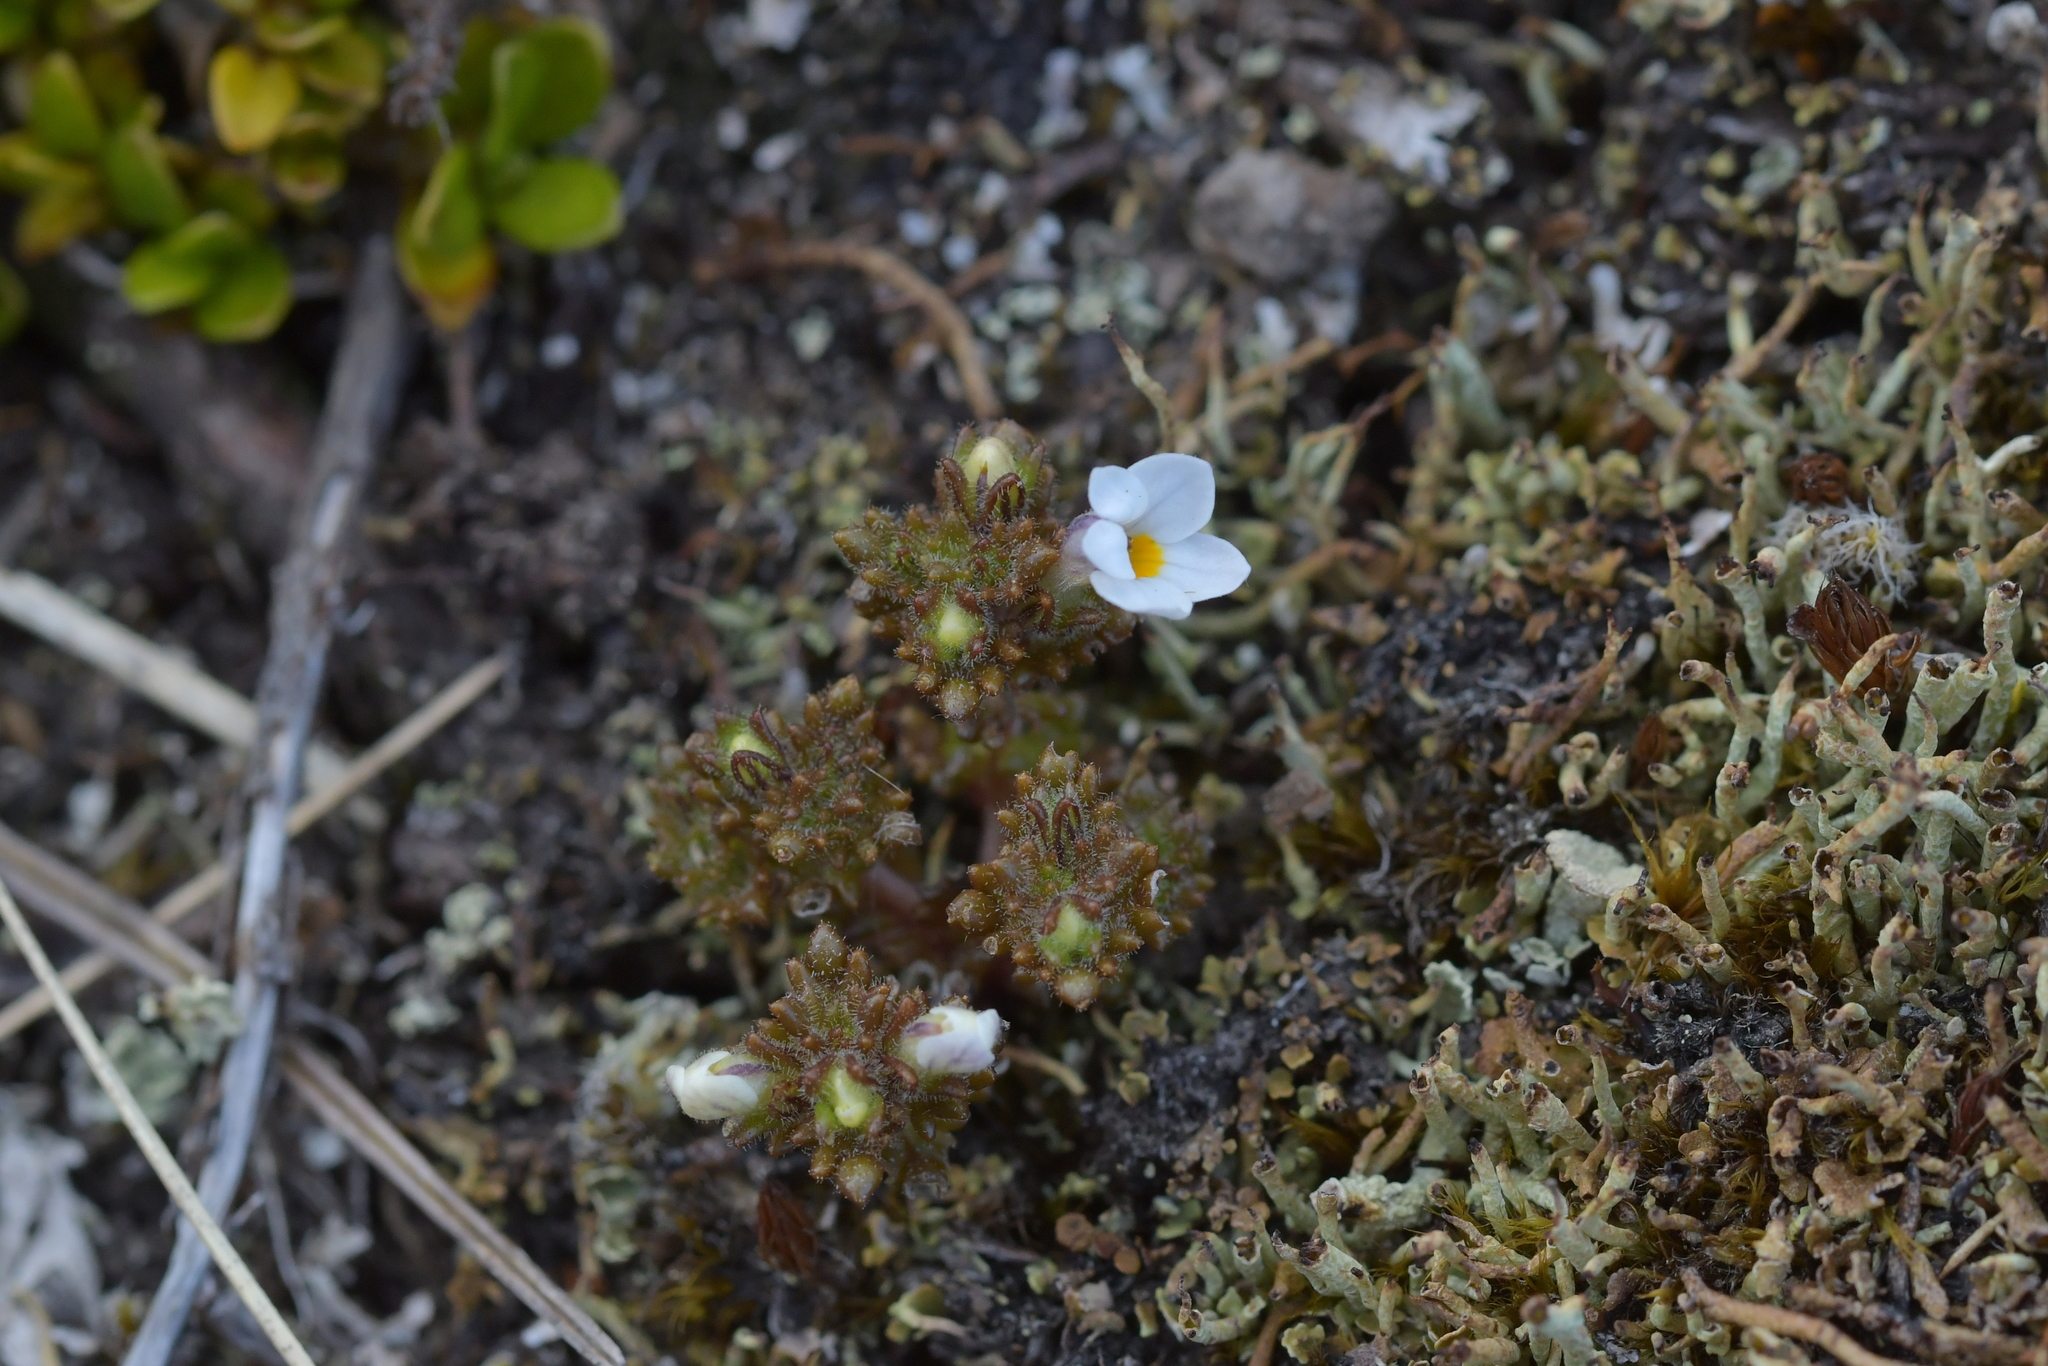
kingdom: Plantae
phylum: Tracheophyta
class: Magnoliopsida
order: Lamiales
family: Orobanchaceae
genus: Euphrasia
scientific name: Euphrasia zelandica
